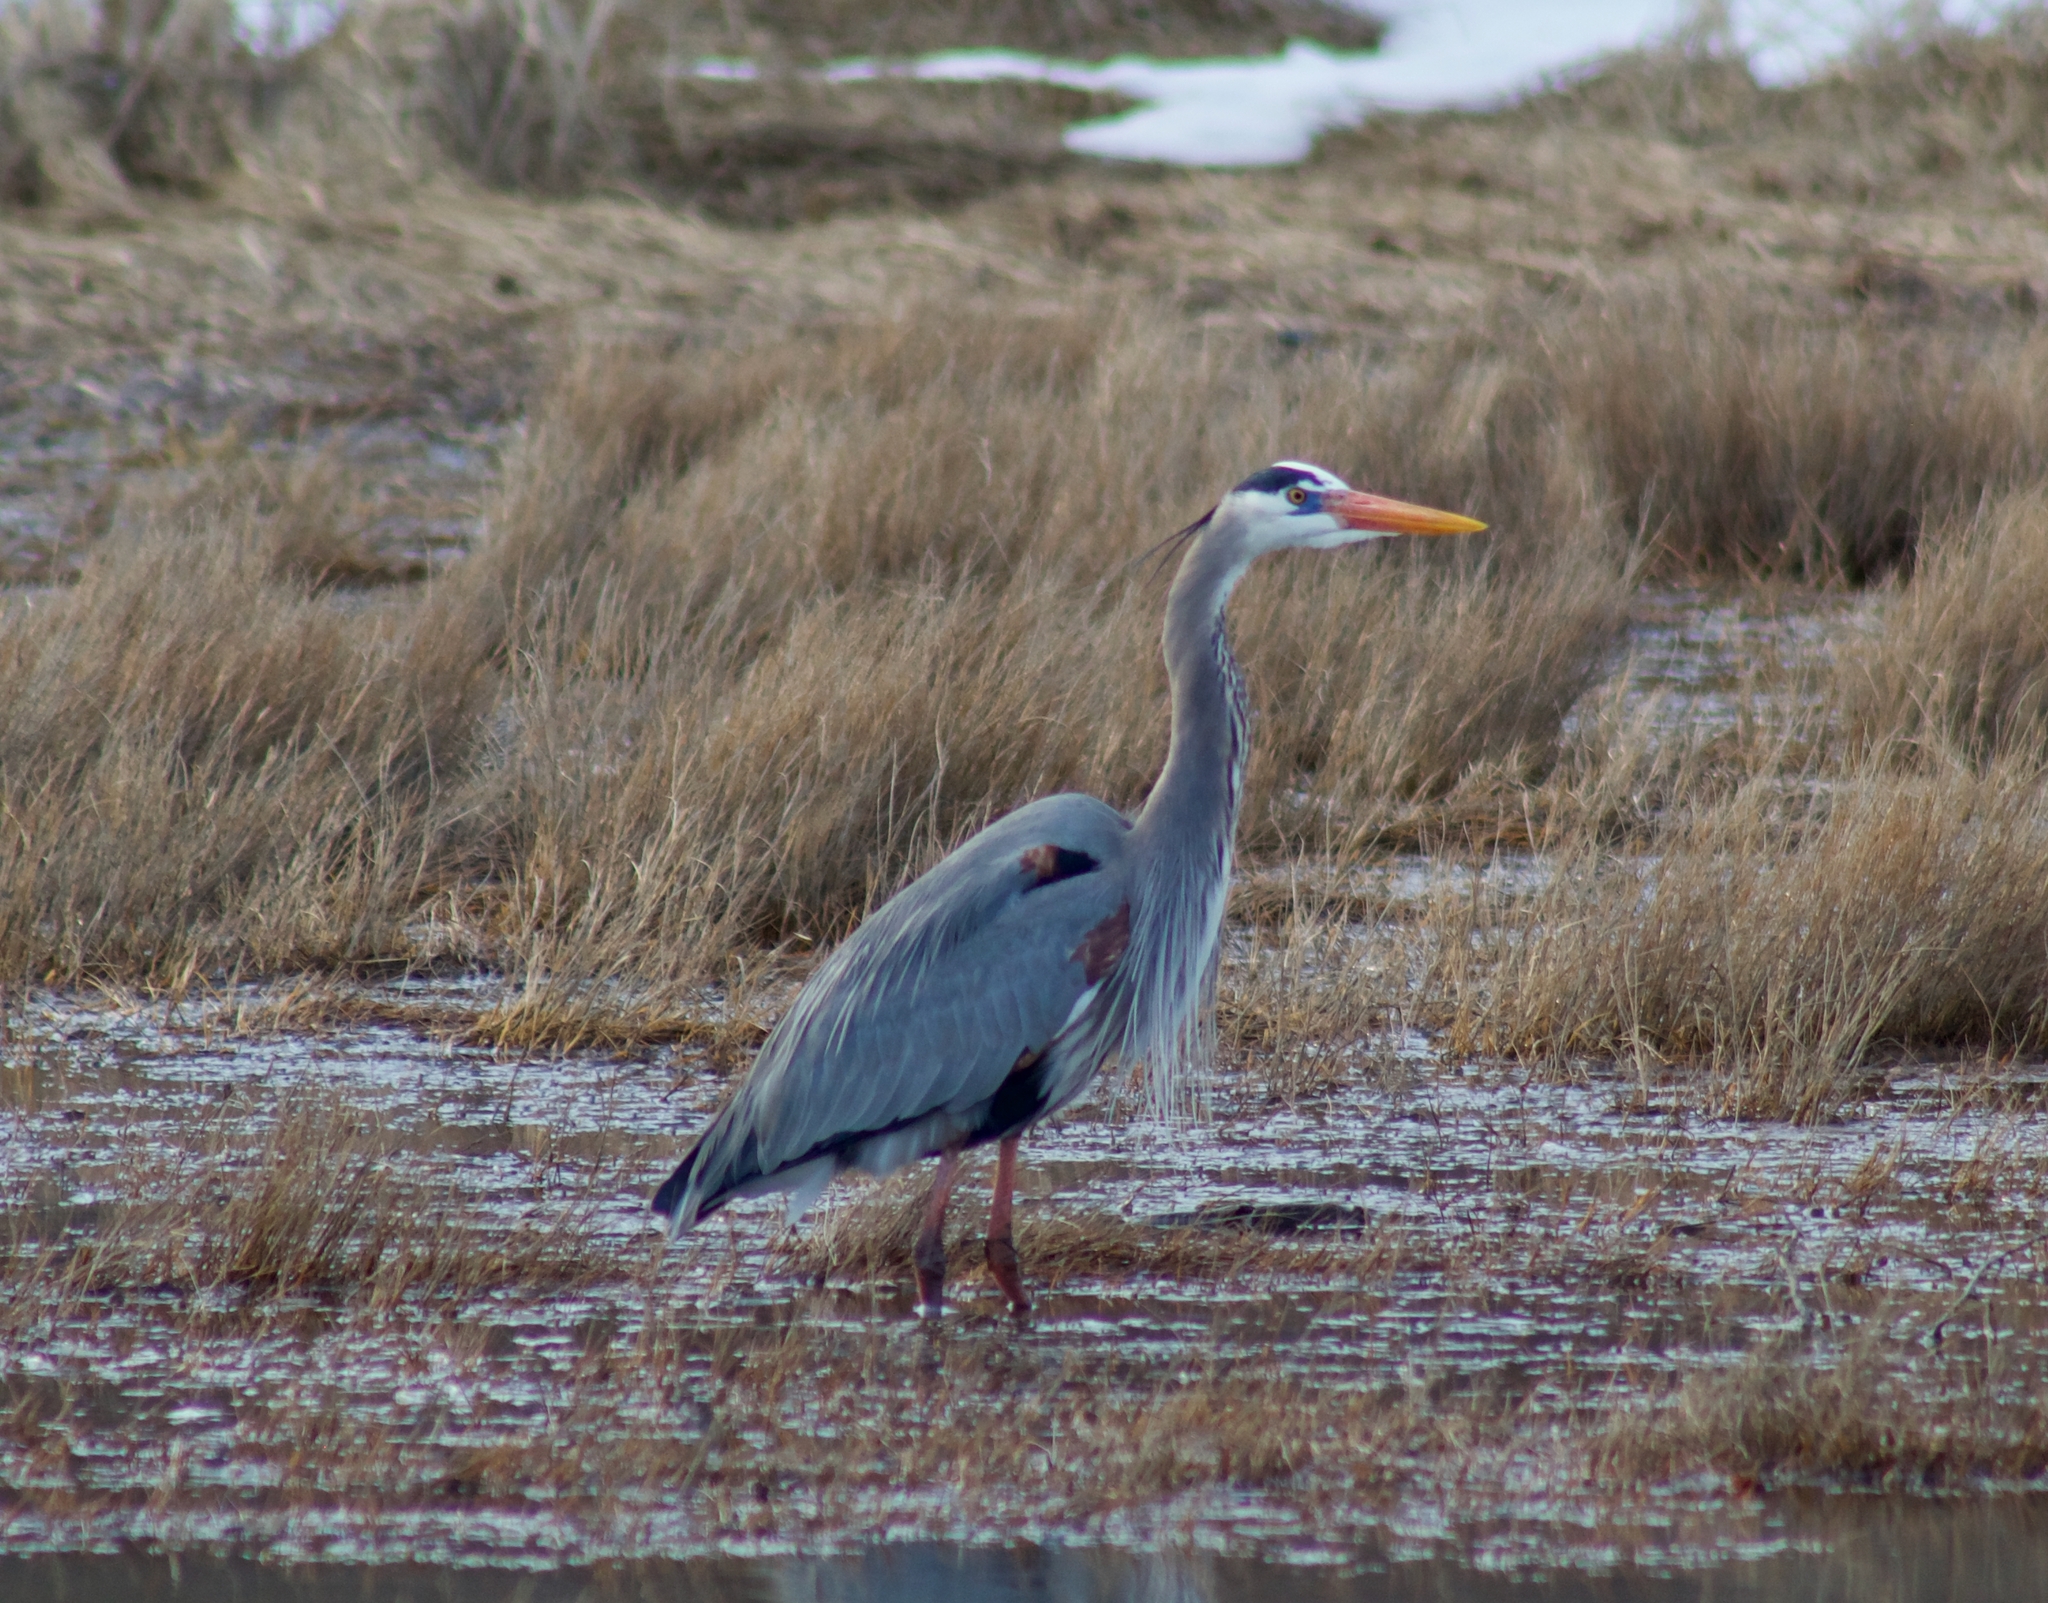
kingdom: Animalia
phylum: Chordata
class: Aves
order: Pelecaniformes
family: Ardeidae
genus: Ardea
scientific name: Ardea herodias
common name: Great blue heron
